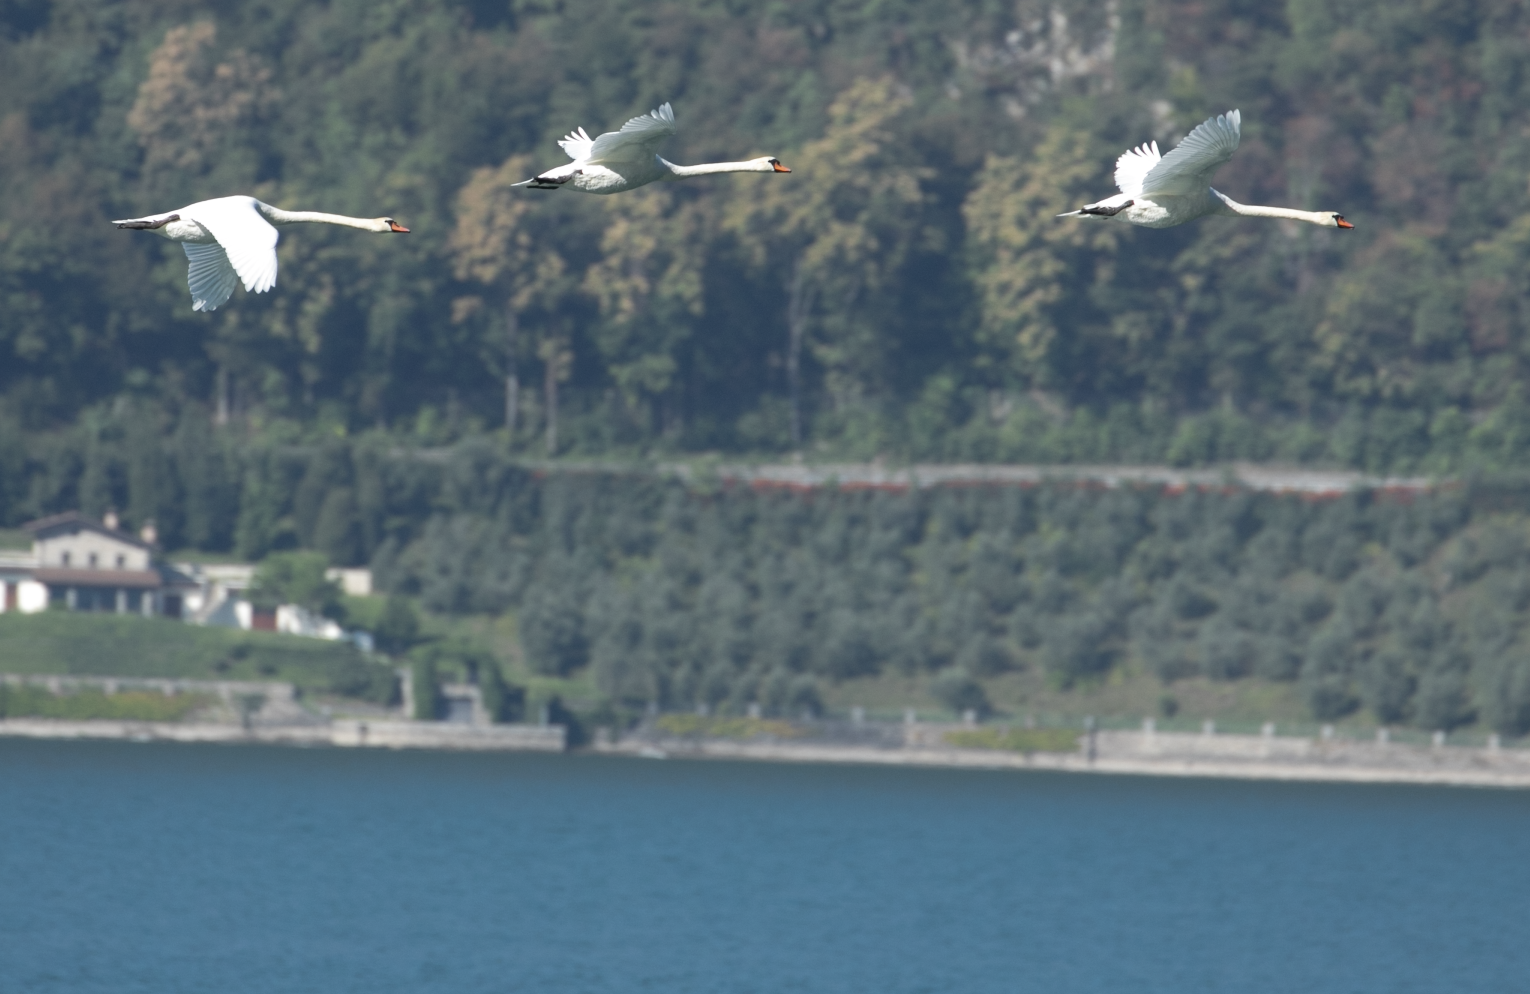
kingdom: Animalia
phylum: Chordata
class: Aves
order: Anseriformes
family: Anatidae
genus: Cygnus
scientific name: Cygnus olor
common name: Mute swan
